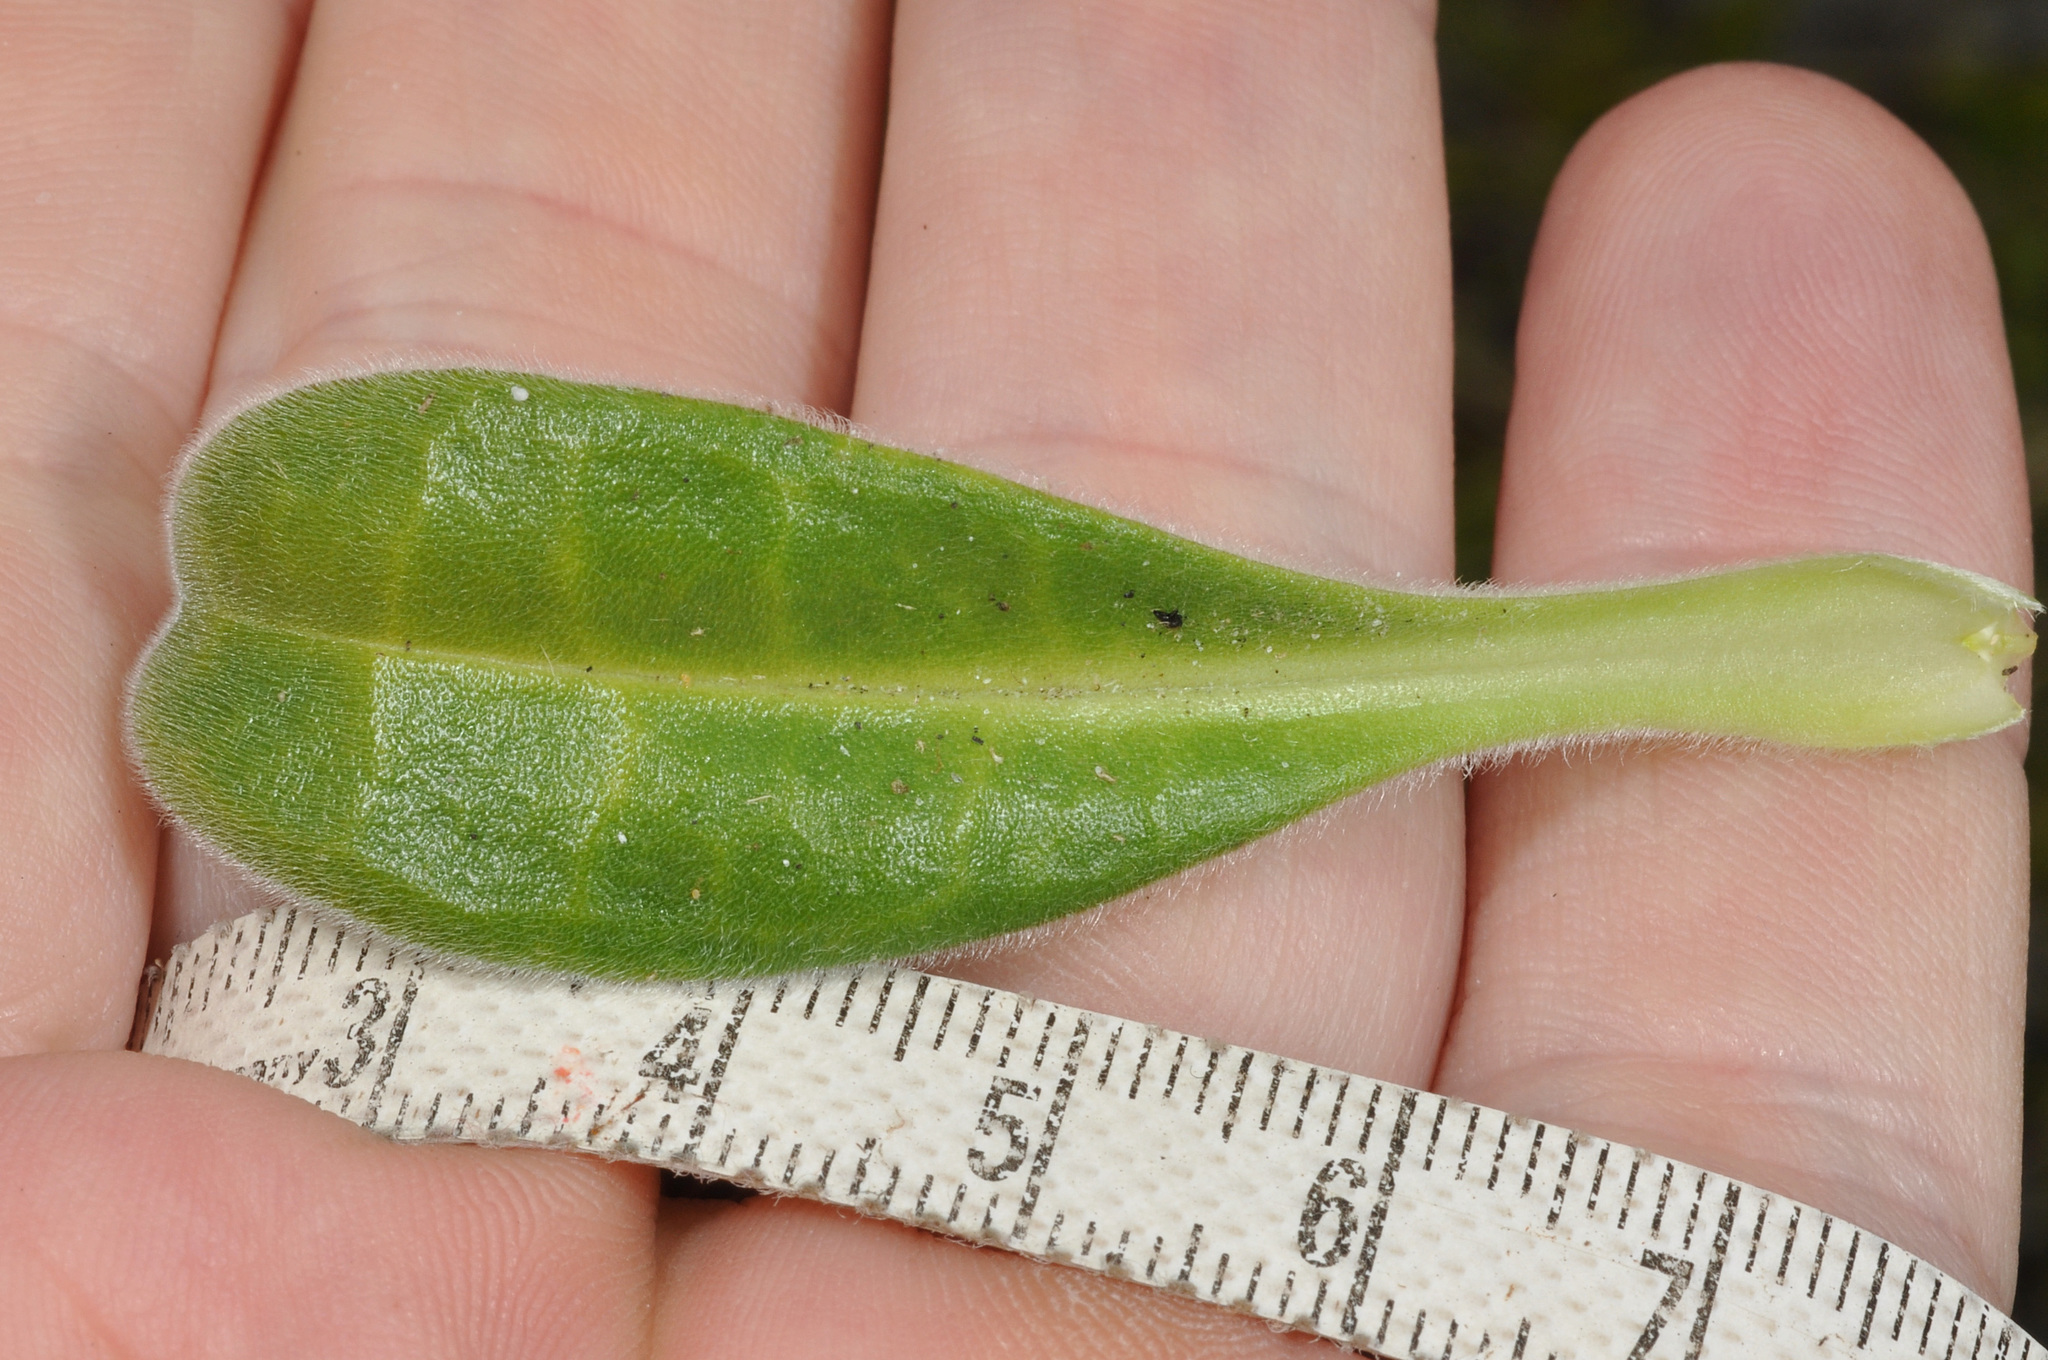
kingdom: Plantae
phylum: Tracheophyta
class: Magnoliopsida
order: Boraginales
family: Boraginaceae
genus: Myosotis
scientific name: Myosotis rakiura
